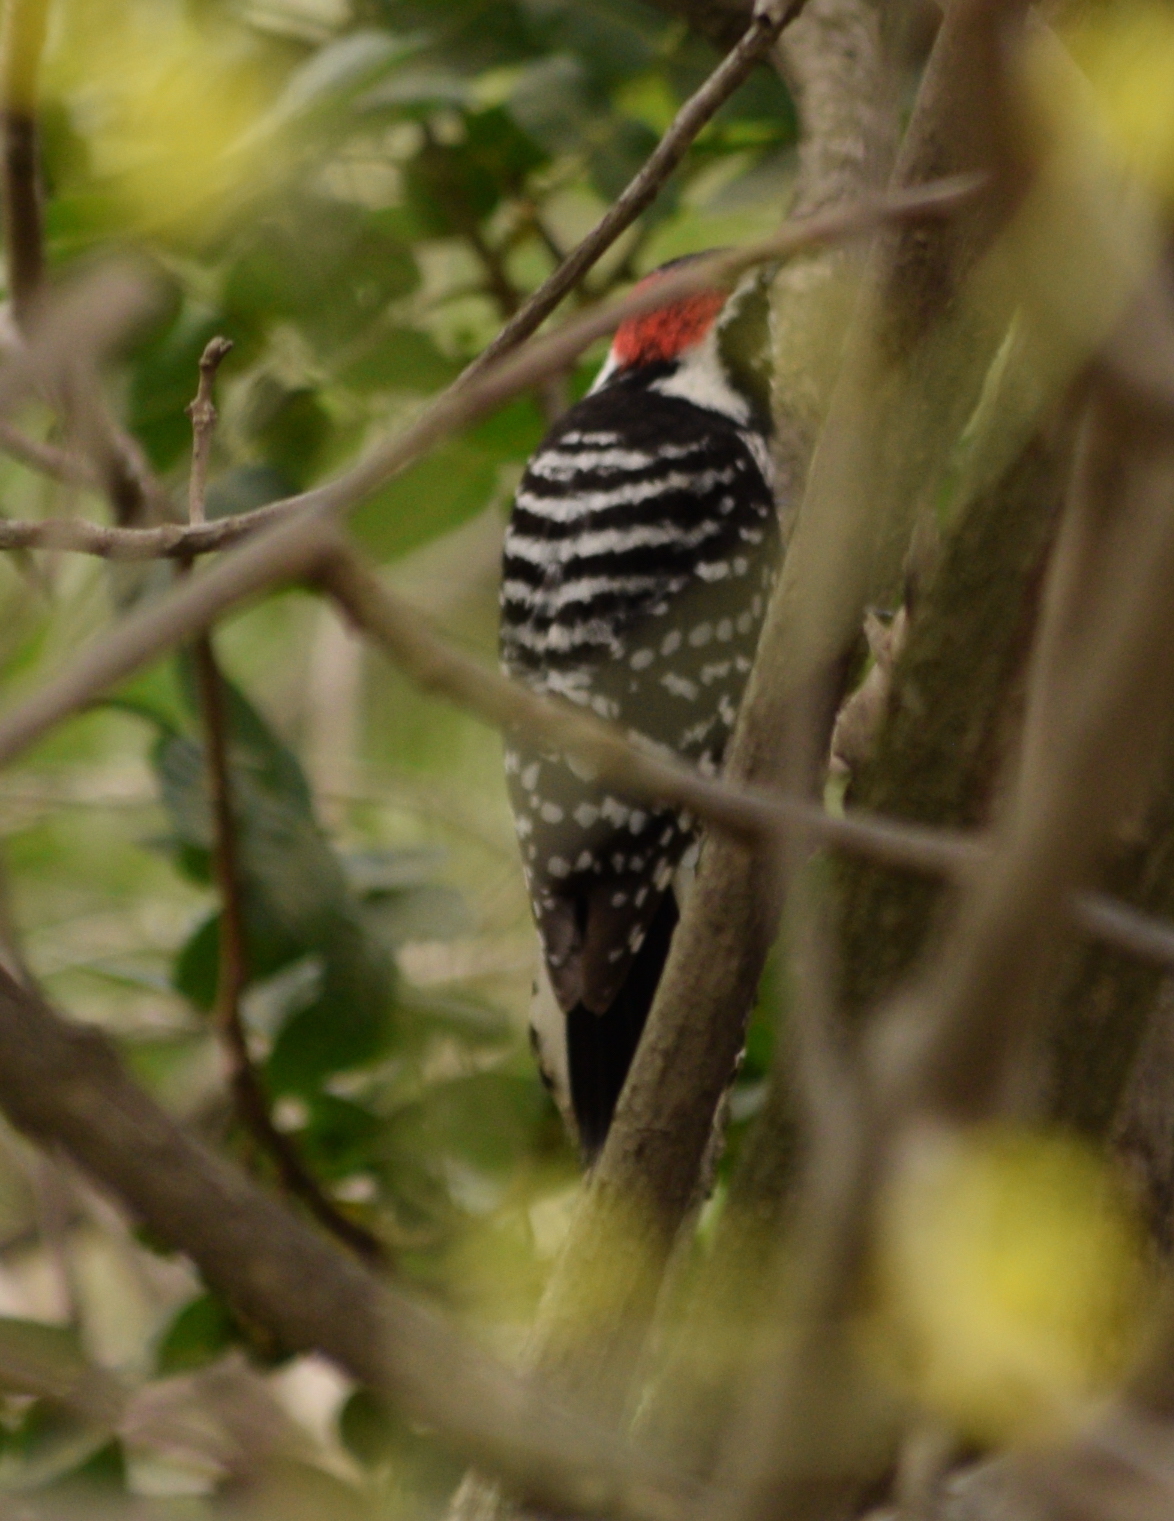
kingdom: Animalia
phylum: Chordata
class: Aves
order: Piciformes
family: Picidae
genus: Dryobates
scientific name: Dryobates nuttallii
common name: Nuttall's woodpecker
